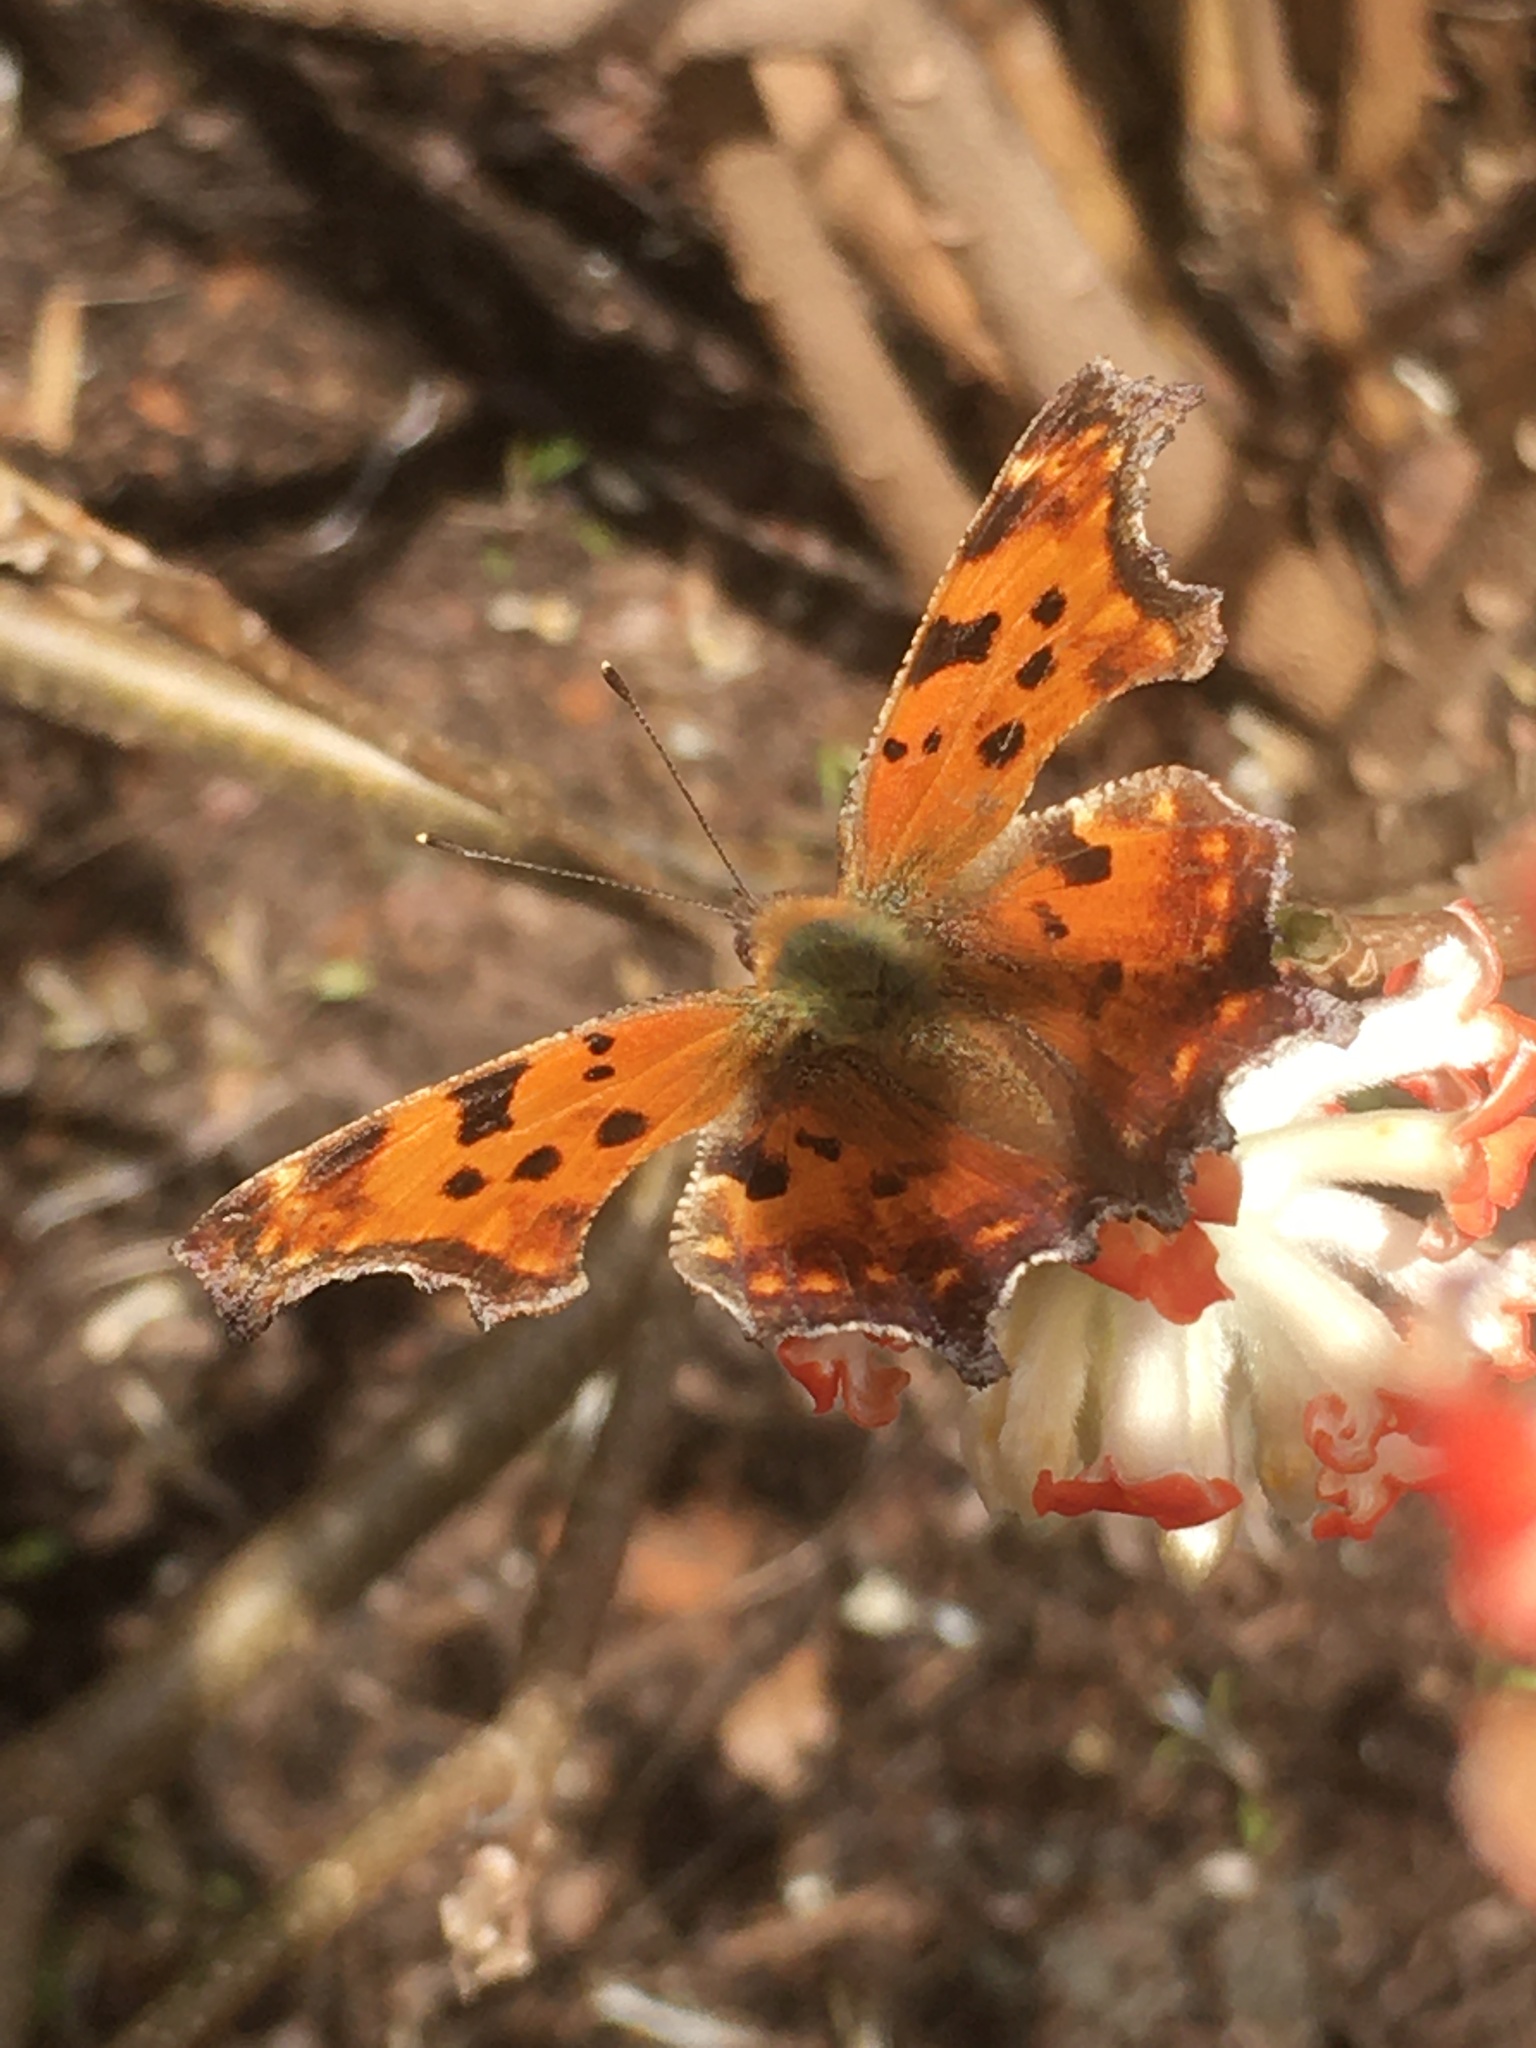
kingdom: Animalia
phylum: Arthropoda
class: Insecta
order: Lepidoptera
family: Nymphalidae
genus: Polygonia
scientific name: Polygonia comma
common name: Eastern comma
